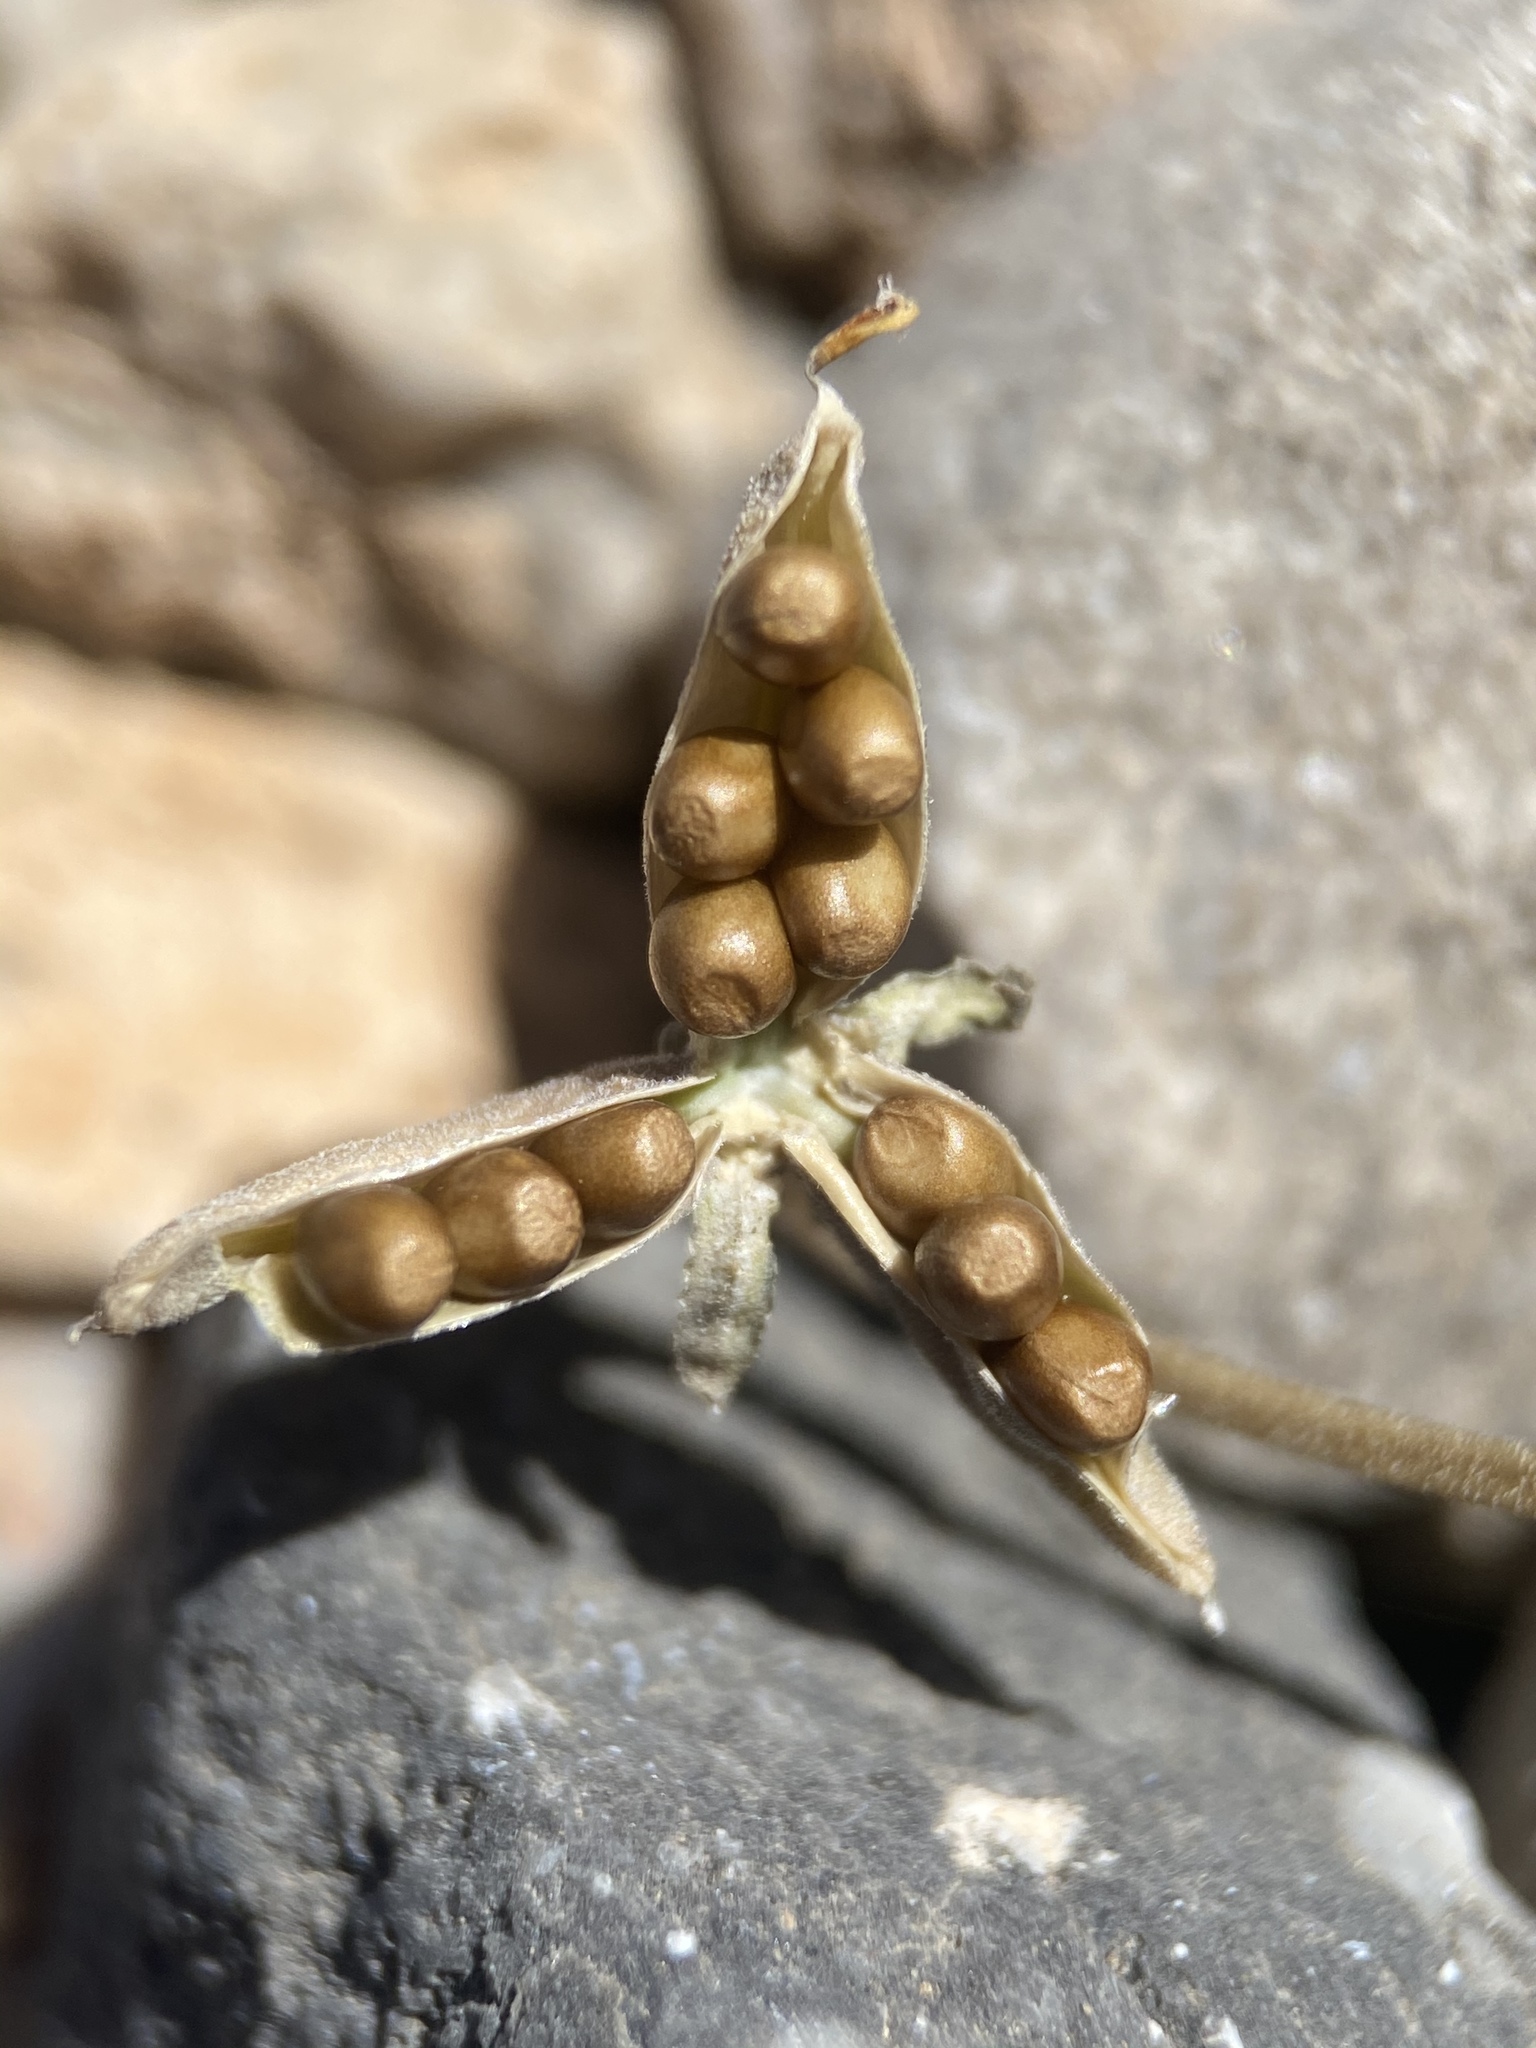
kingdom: Plantae
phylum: Tracheophyta
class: Magnoliopsida
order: Malpighiales
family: Violaceae
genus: Viola
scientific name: Viola charlestonensis
